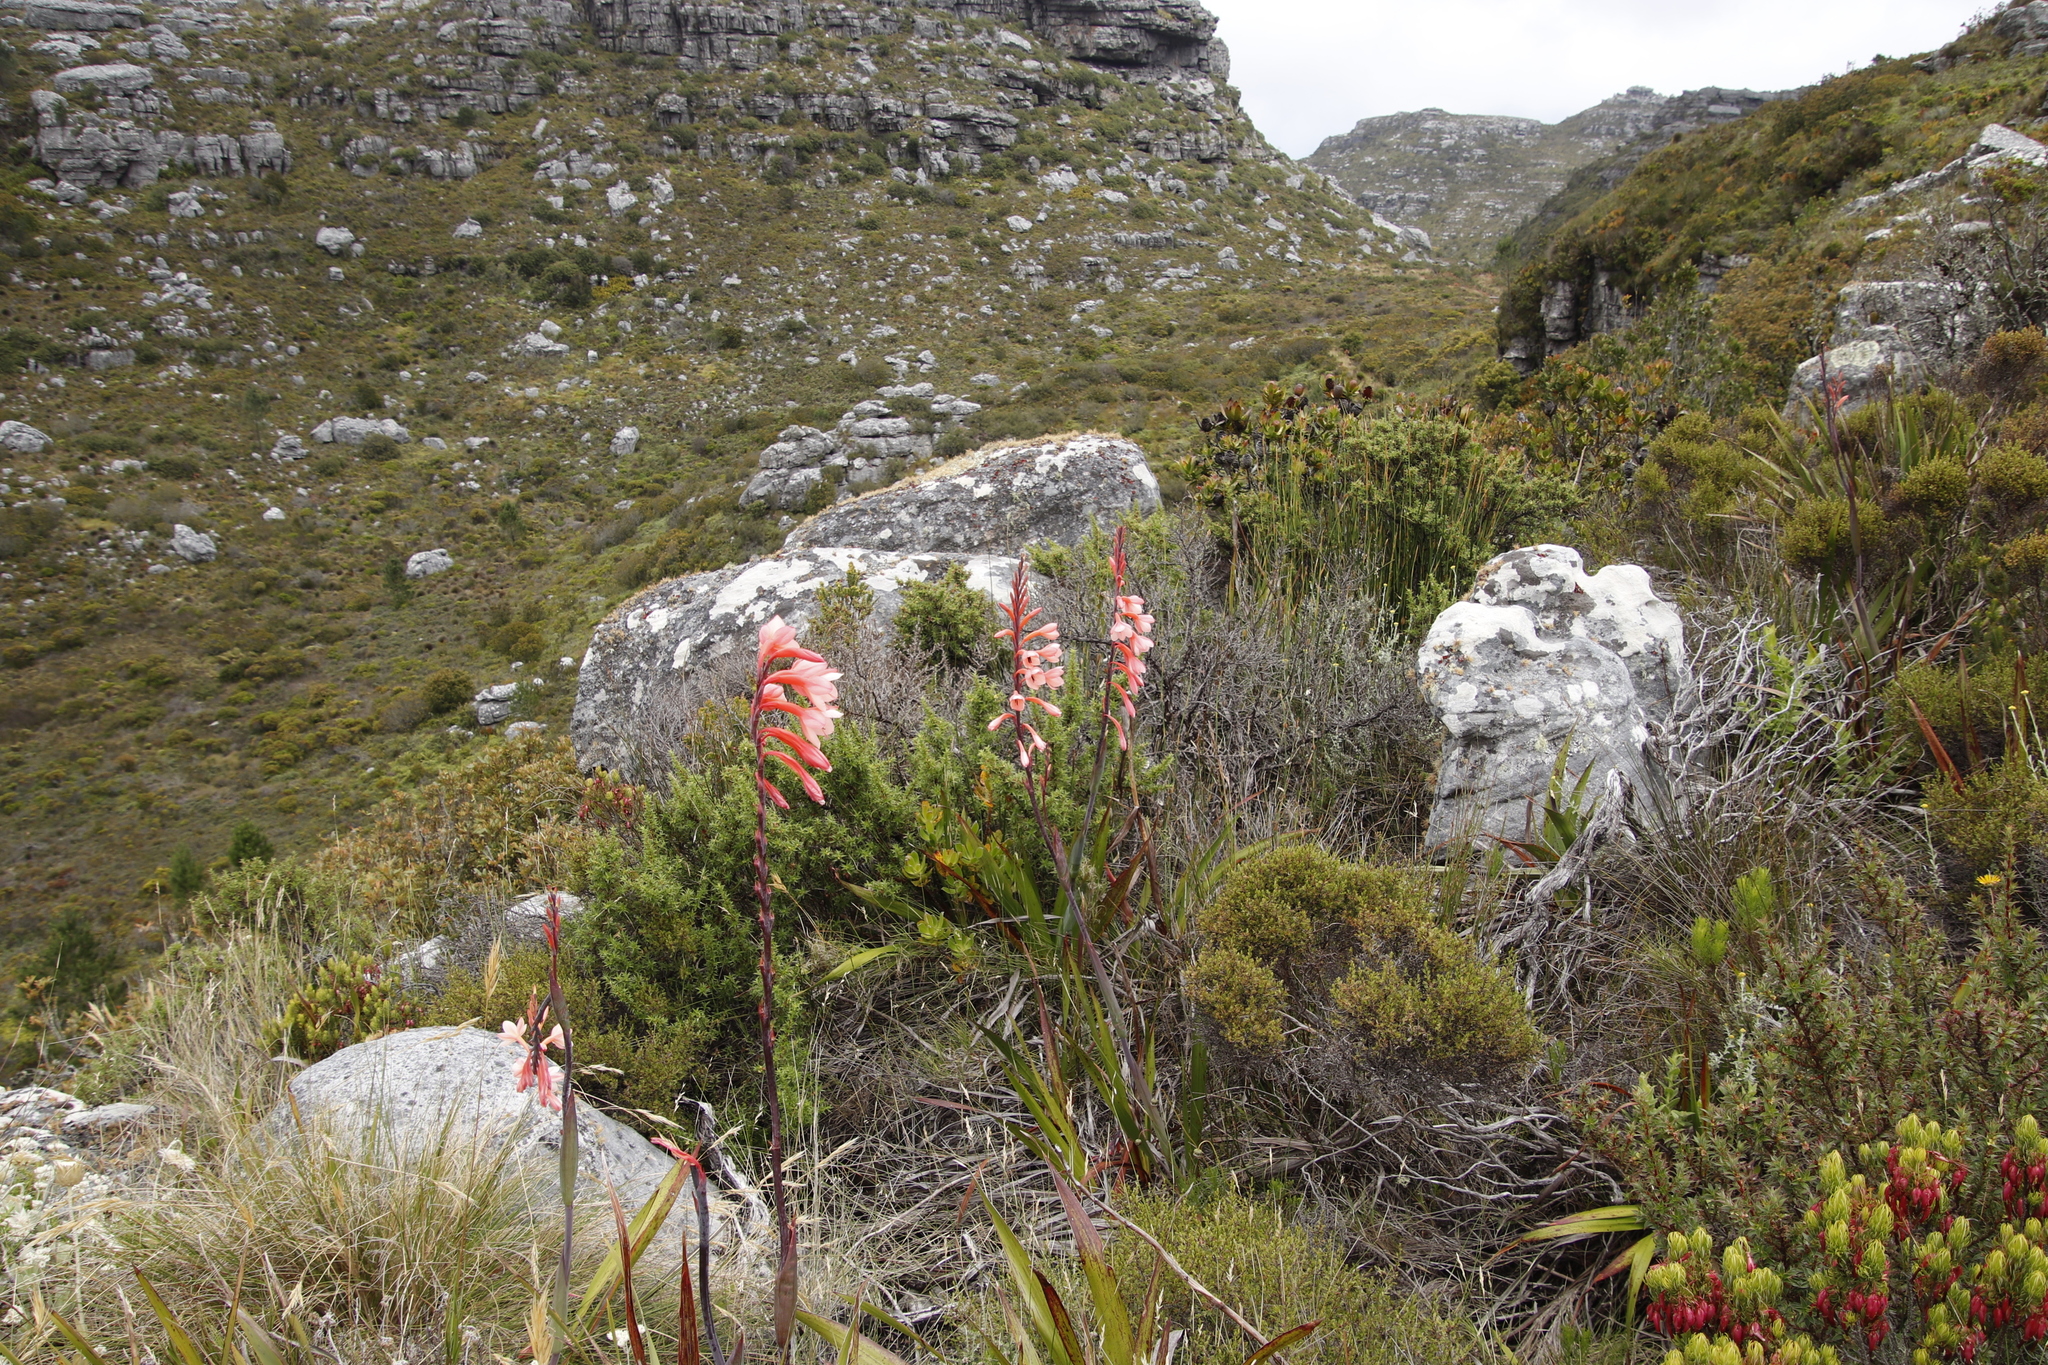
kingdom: Plantae
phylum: Tracheophyta
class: Liliopsida
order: Asparagales
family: Iridaceae
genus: Watsonia
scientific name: Watsonia tabularis
